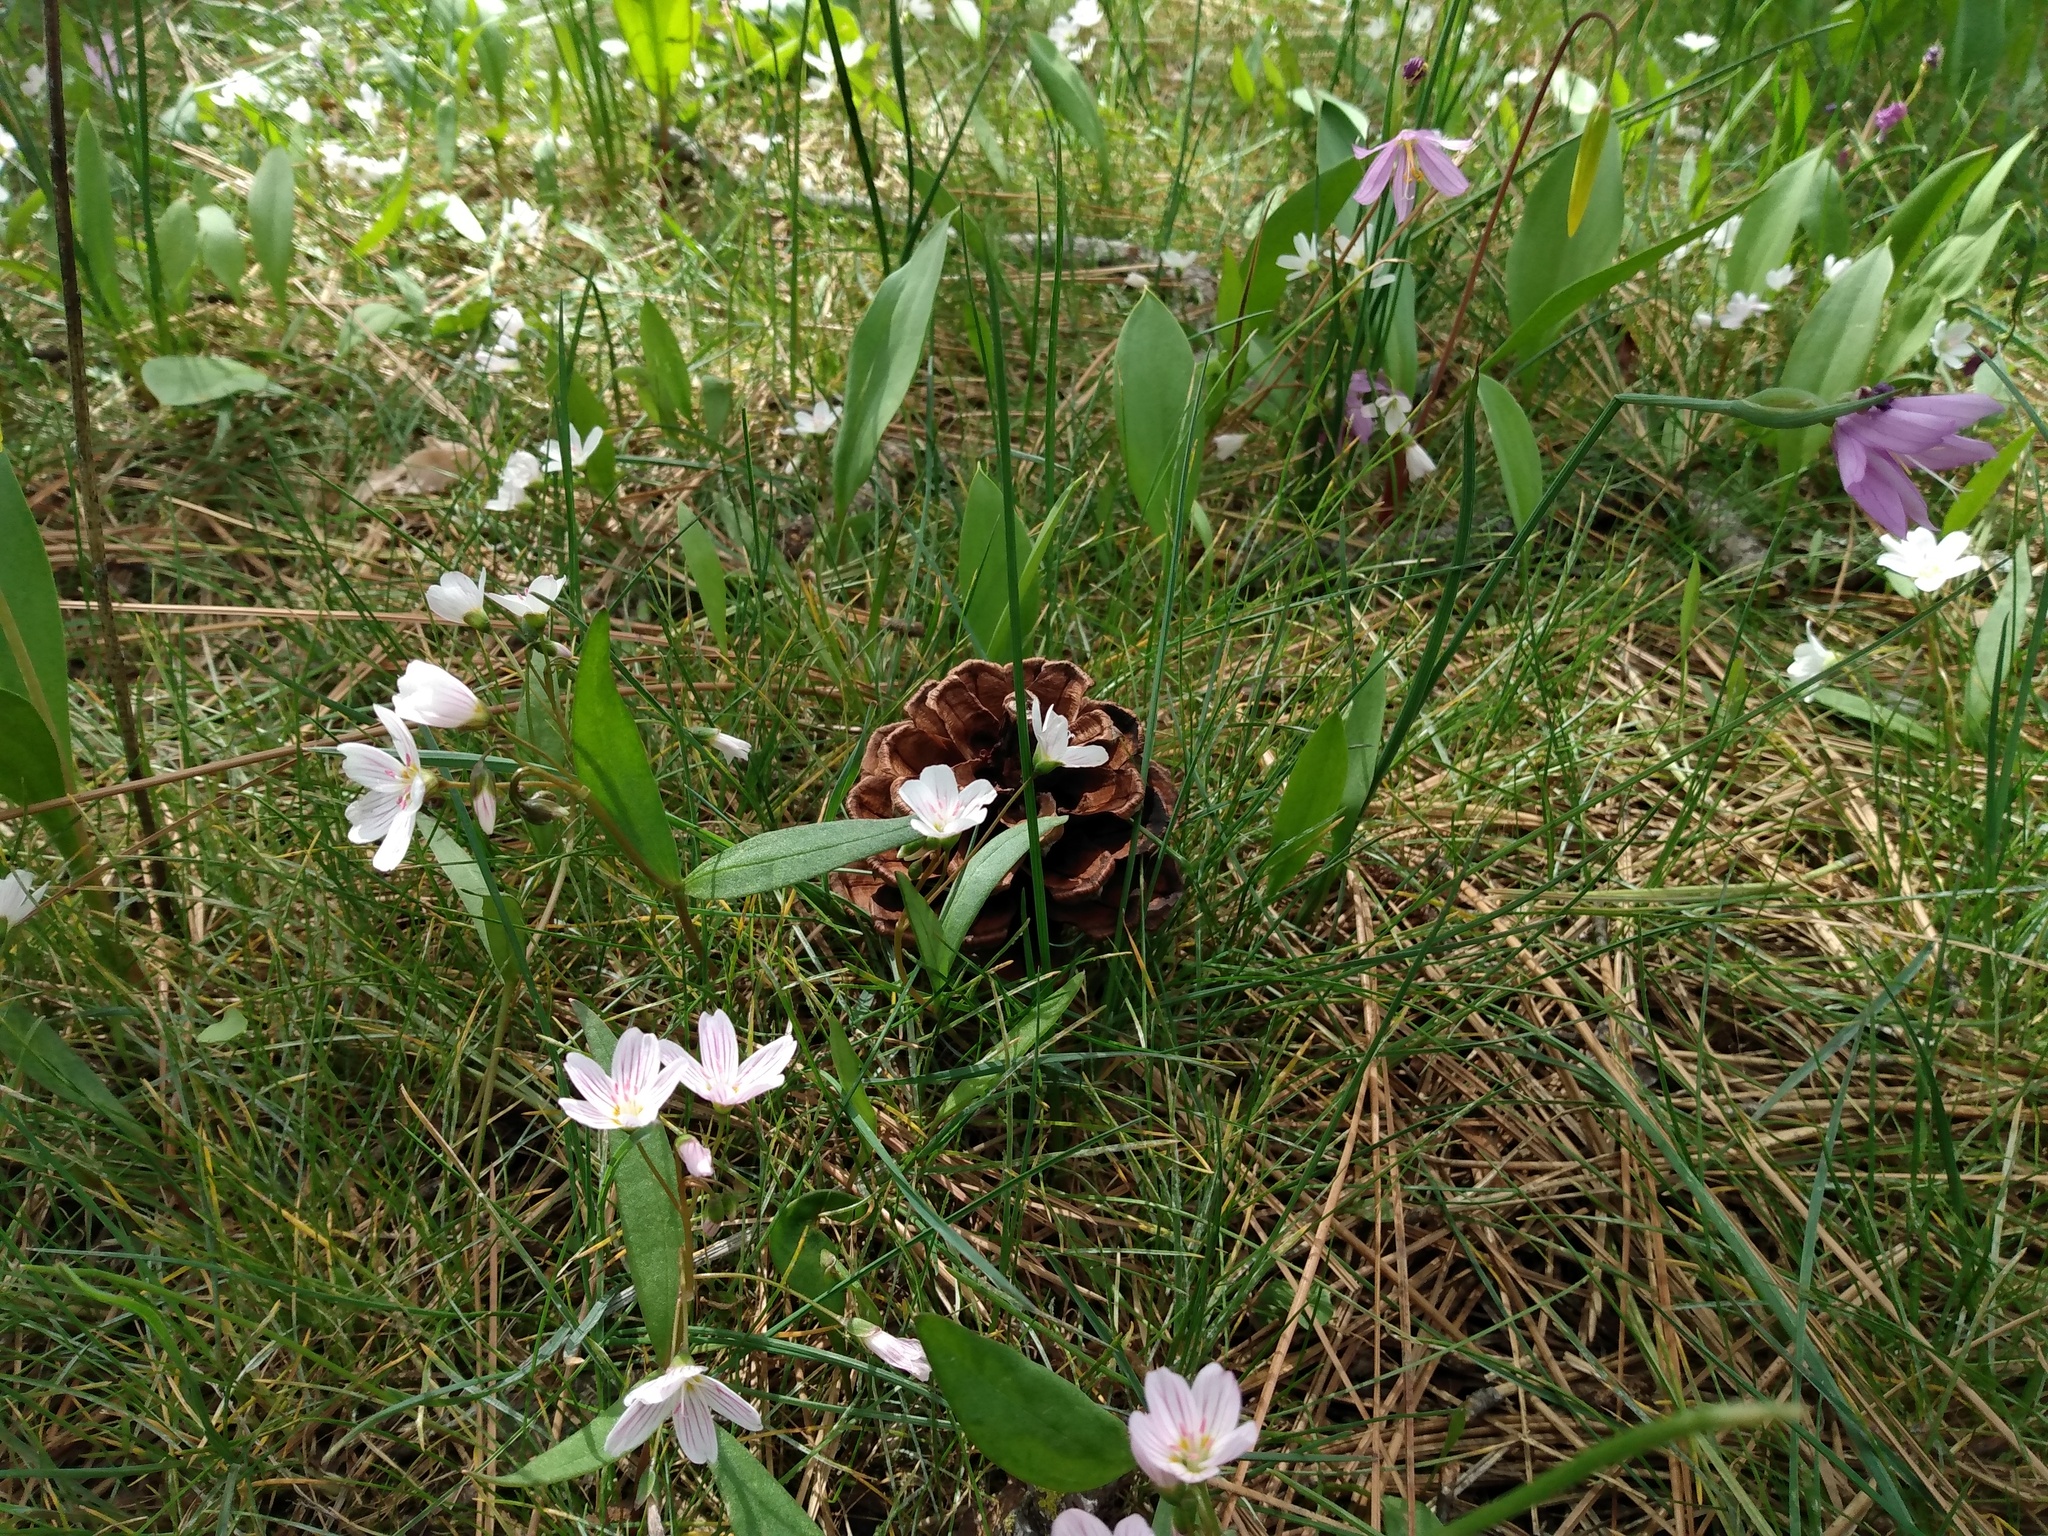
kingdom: Plantae
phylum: Tracheophyta
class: Liliopsida
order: Asparagales
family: Iridaceae
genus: Olsynium
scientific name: Olsynium douglasii
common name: Douglas' grasswidow
